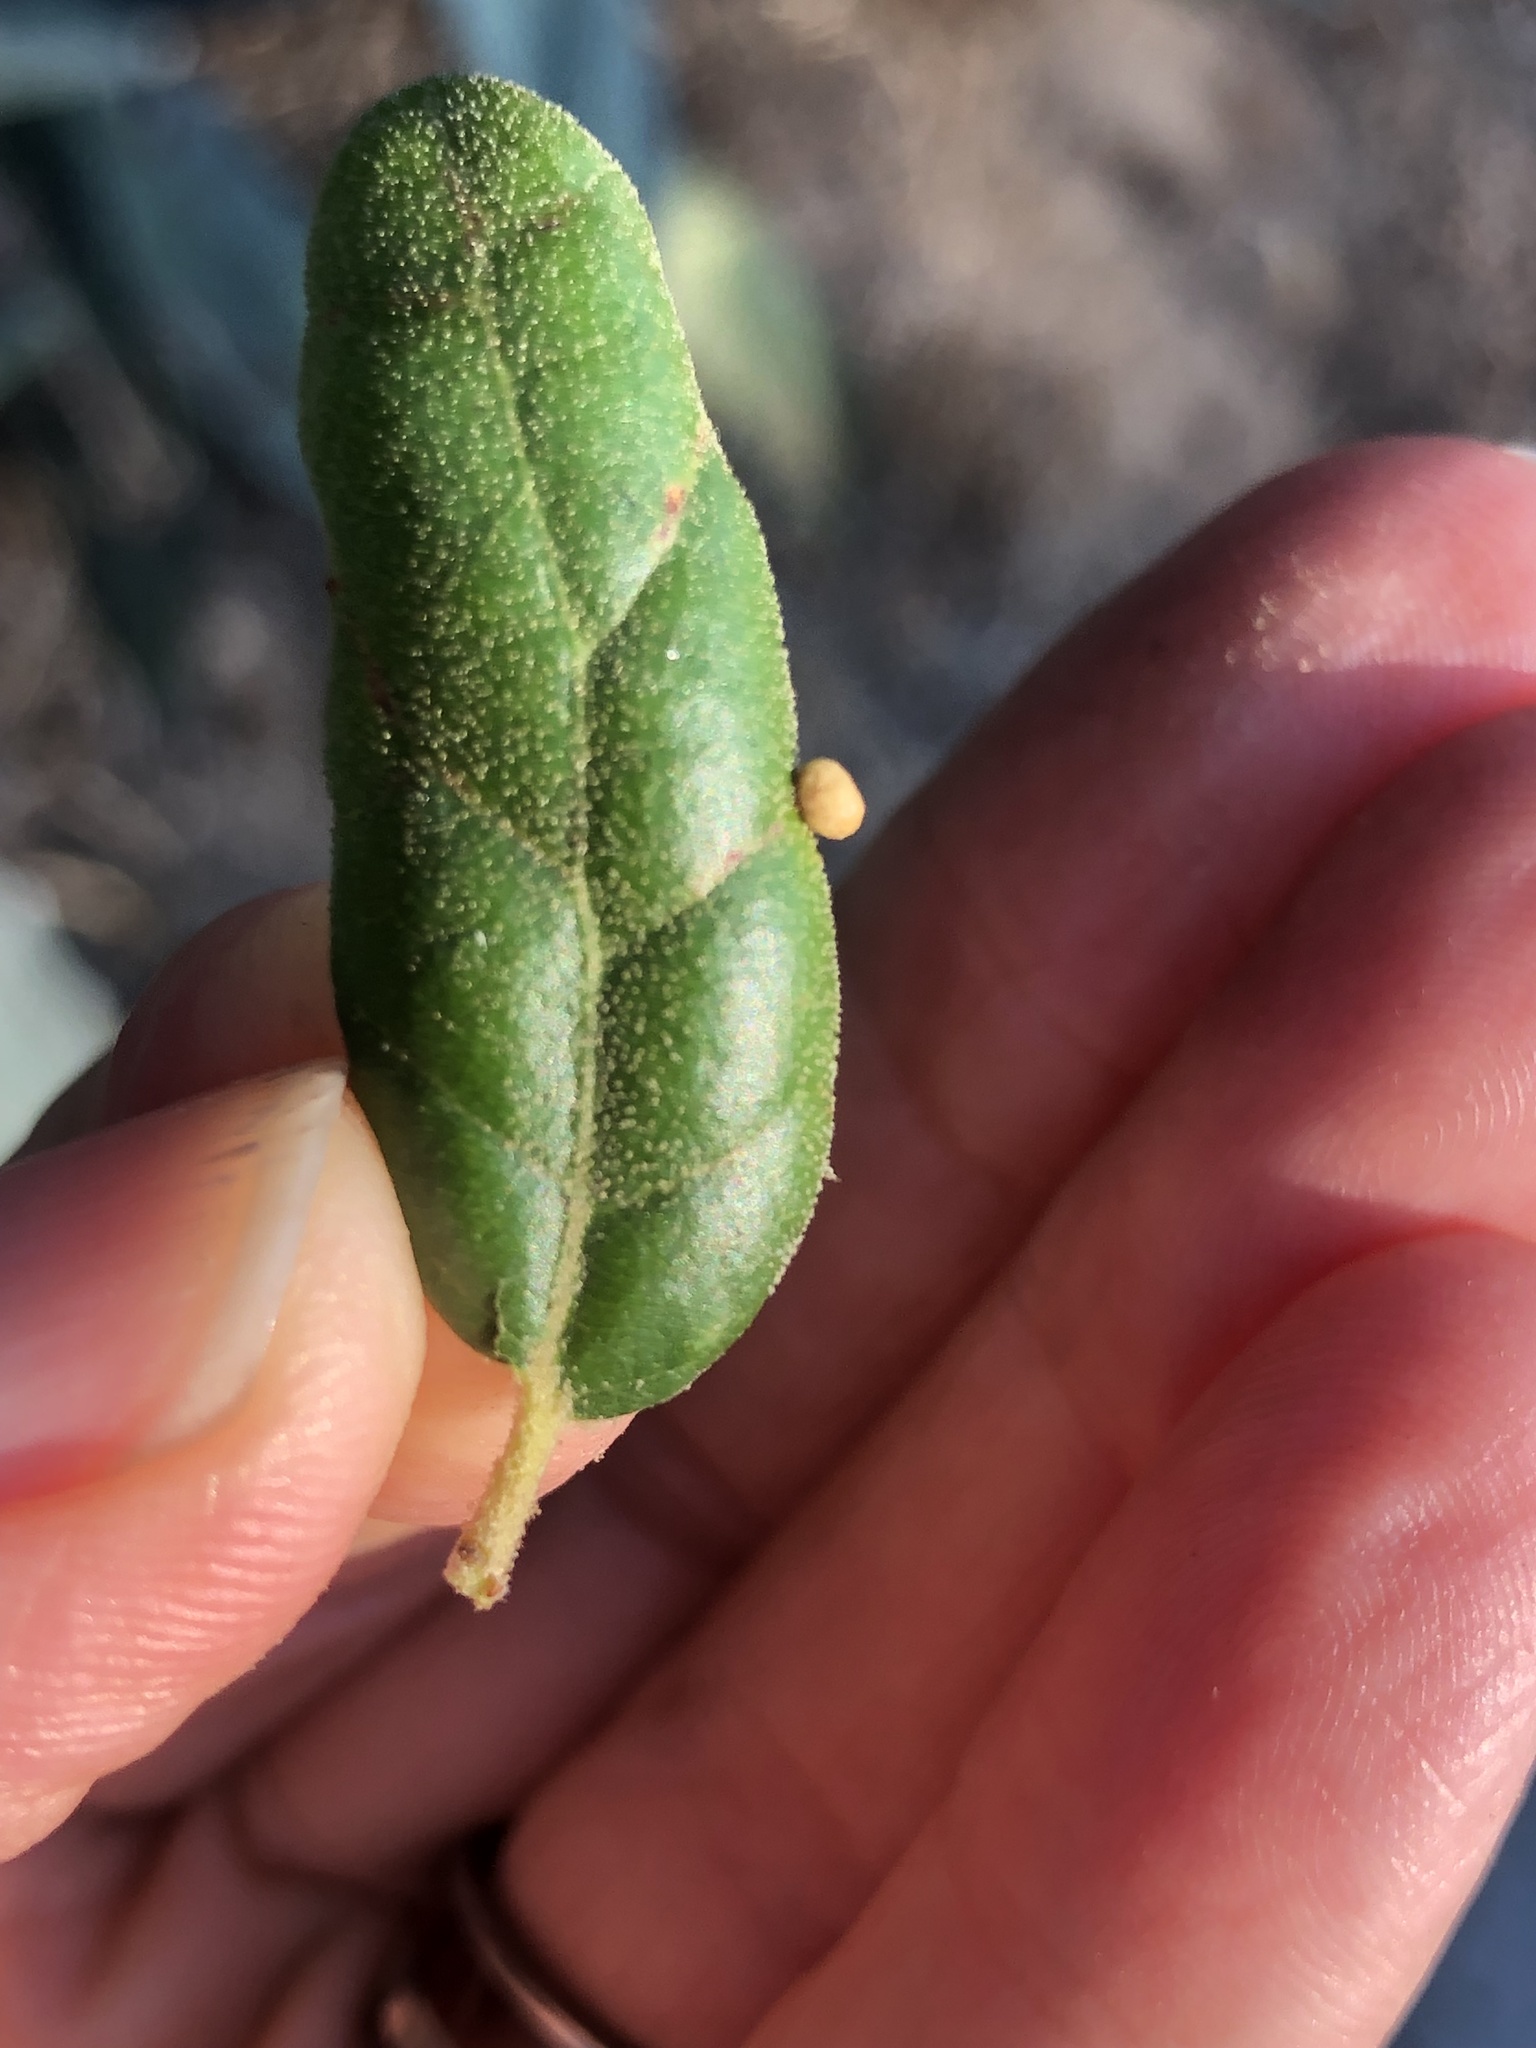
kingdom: Animalia
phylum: Arthropoda
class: Insecta
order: Hymenoptera
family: Cynipidae
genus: Dryocosmus
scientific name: Dryocosmus
